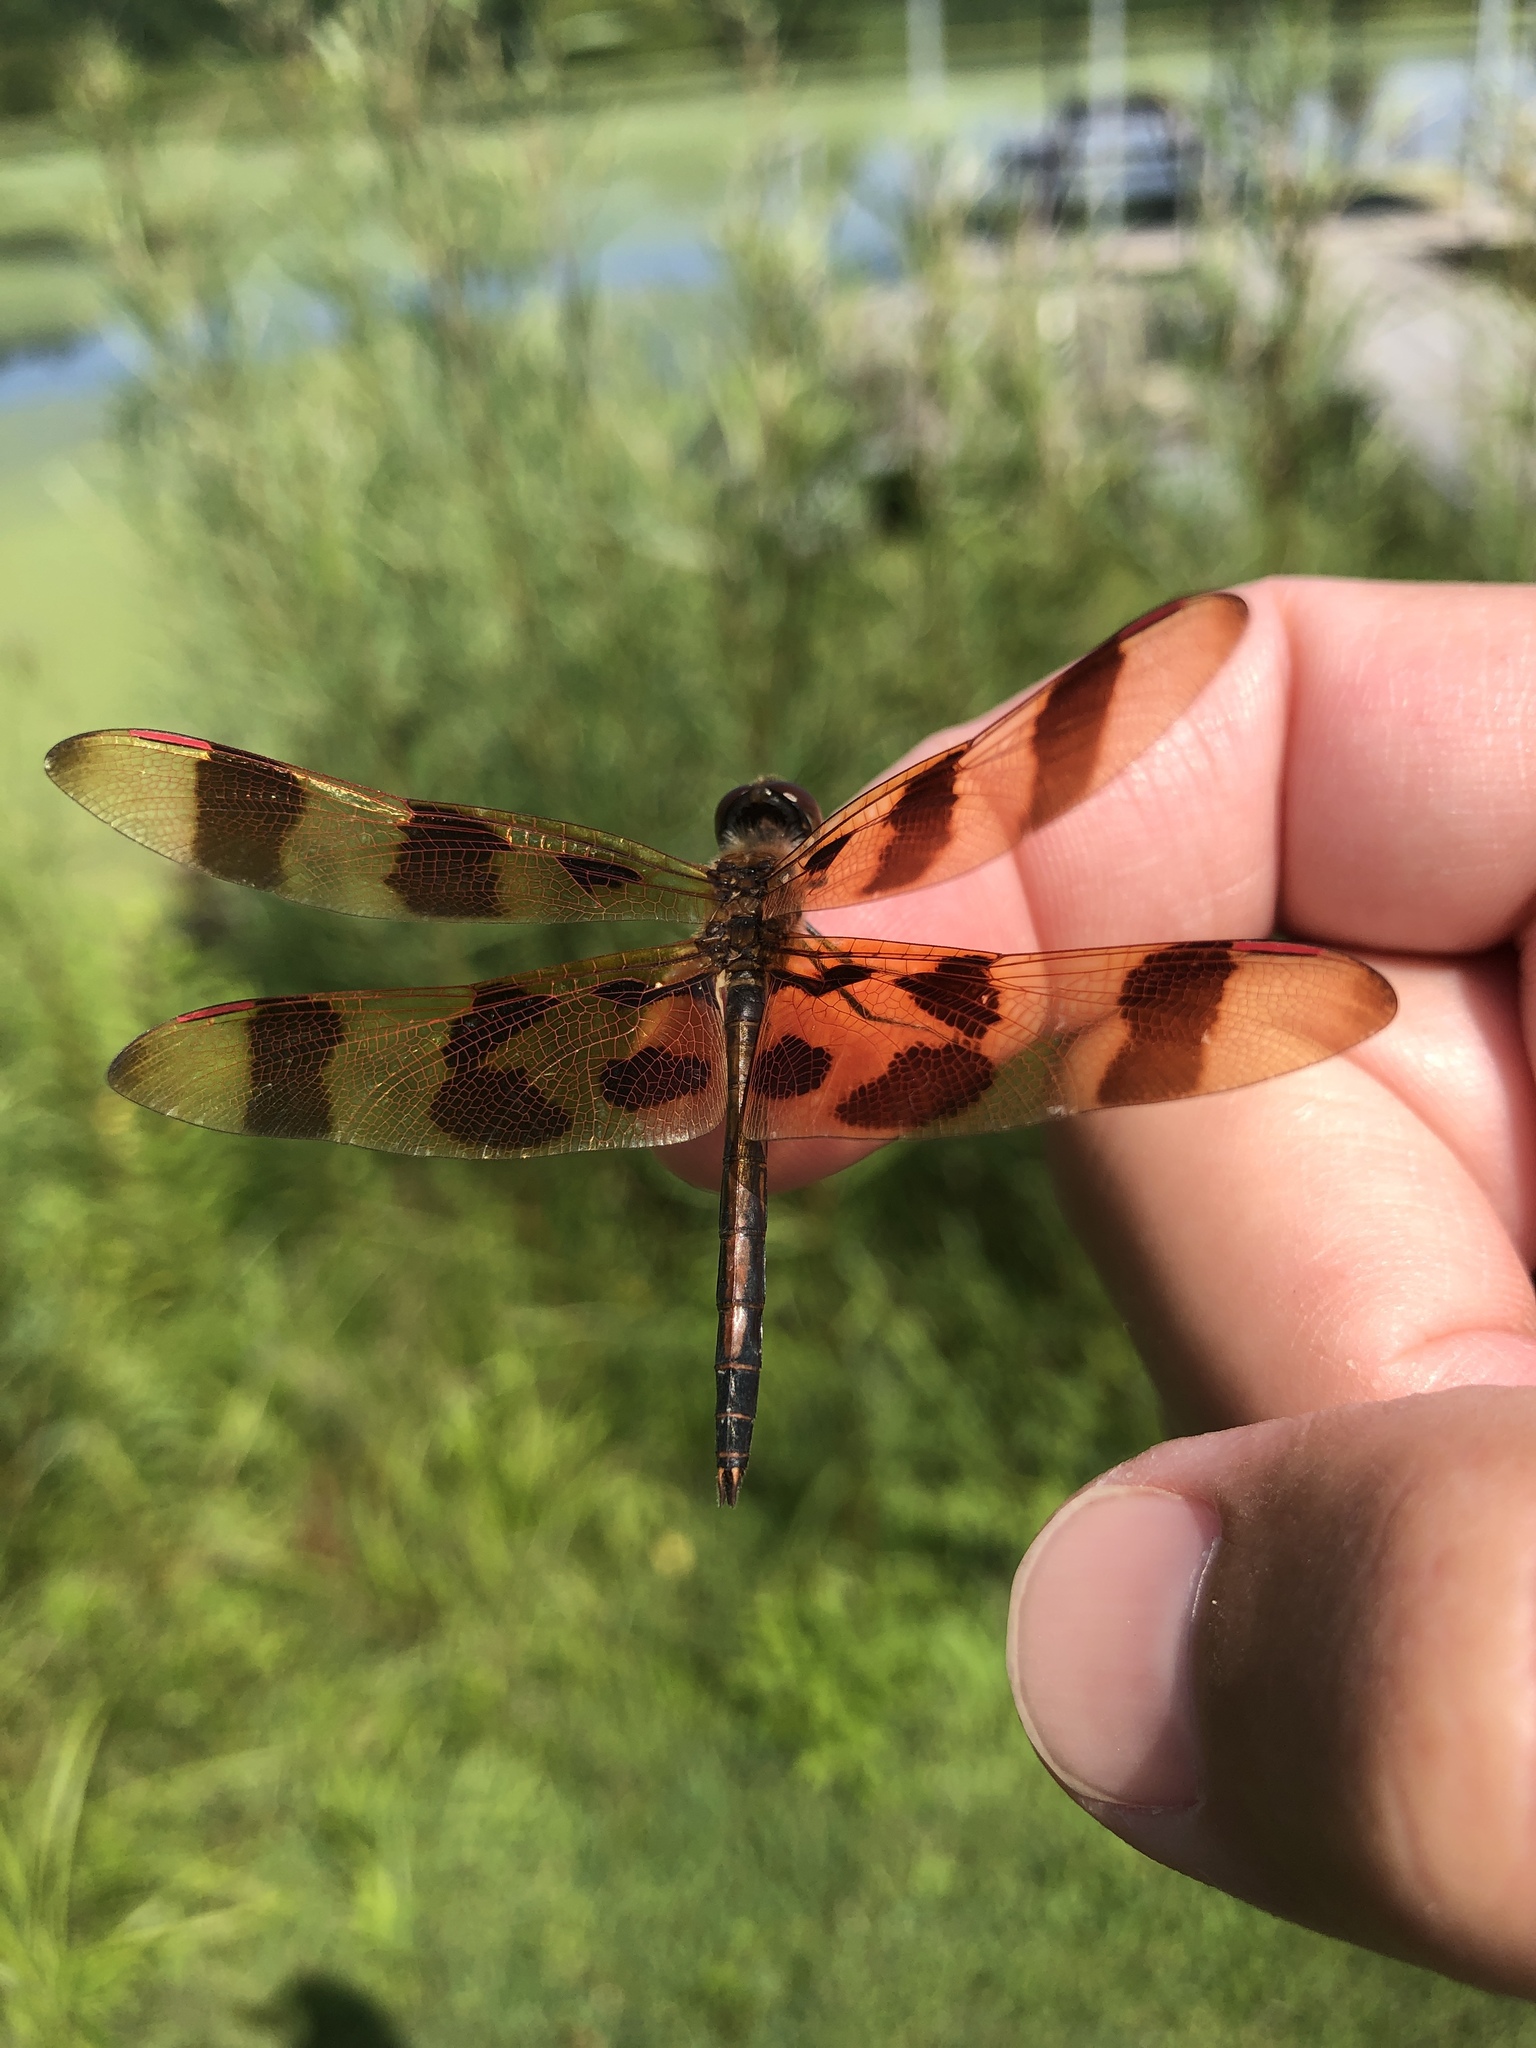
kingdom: Animalia
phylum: Arthropoda
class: Insecta
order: Odonata
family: Libellulidae
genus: Celithemis
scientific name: Celithemis eponina
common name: Halloween pennant
